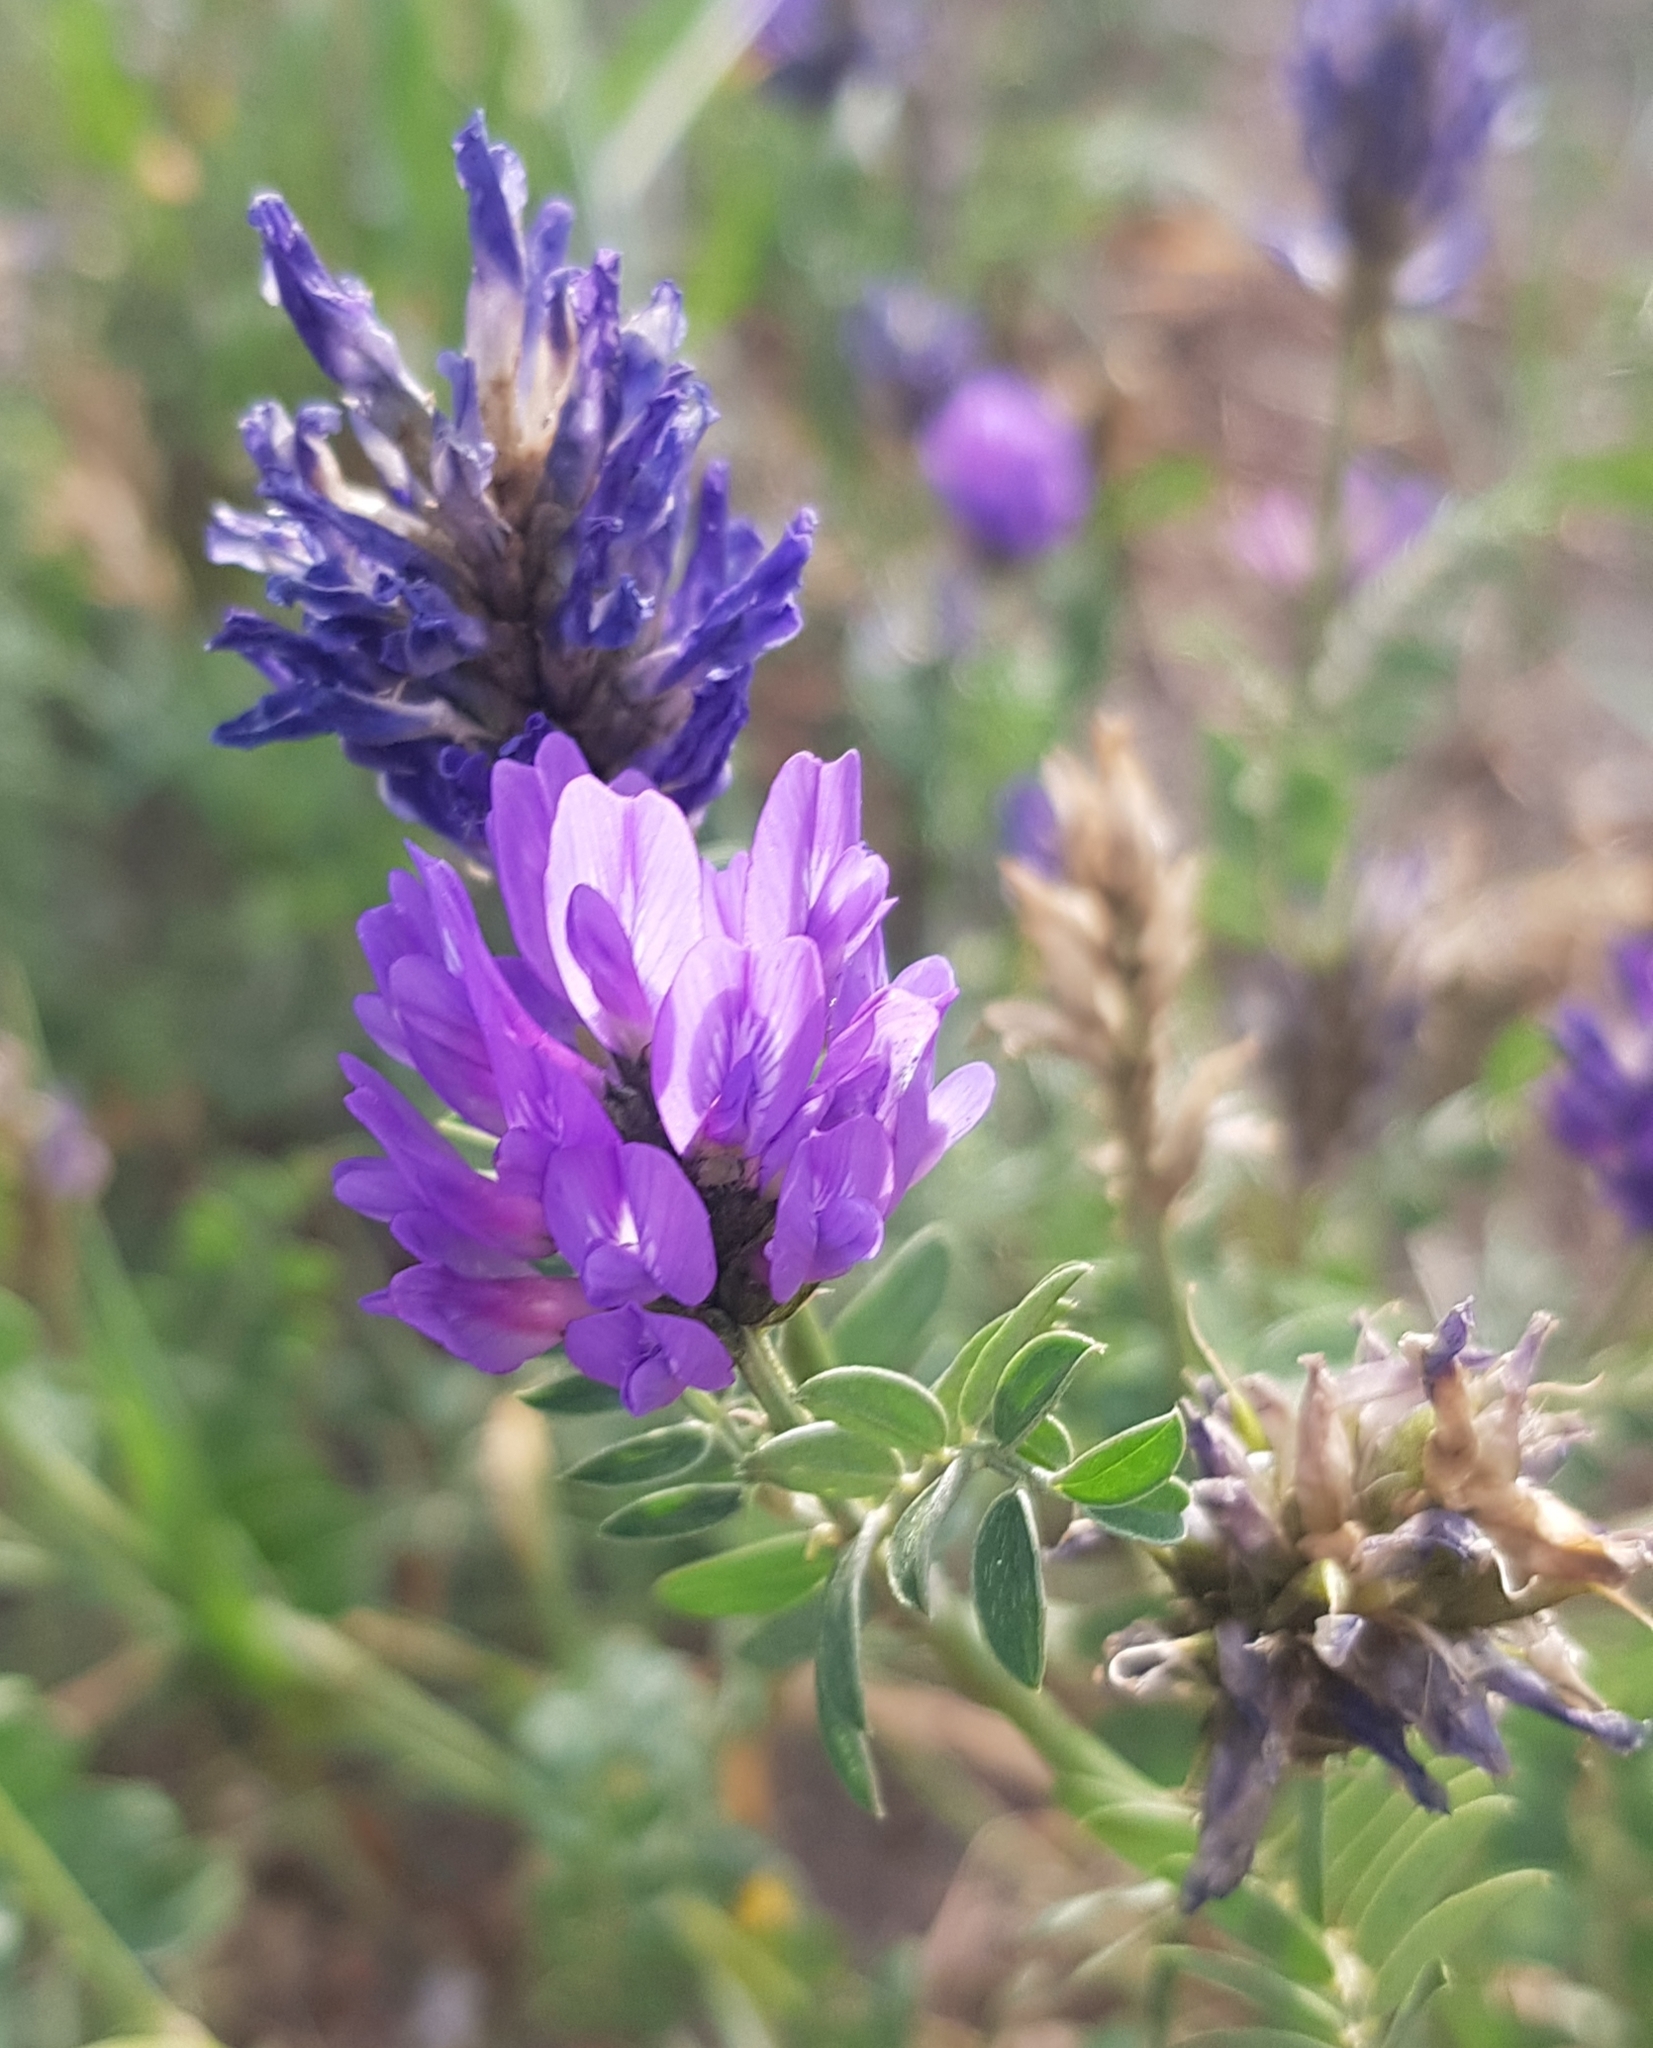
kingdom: Plantae
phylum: Tracheophyta
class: Magnoliopsida
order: Fabales
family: Fabaceae
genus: Astragalus
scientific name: Astragalus laxmannii
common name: Laxmann's milk-vetch
